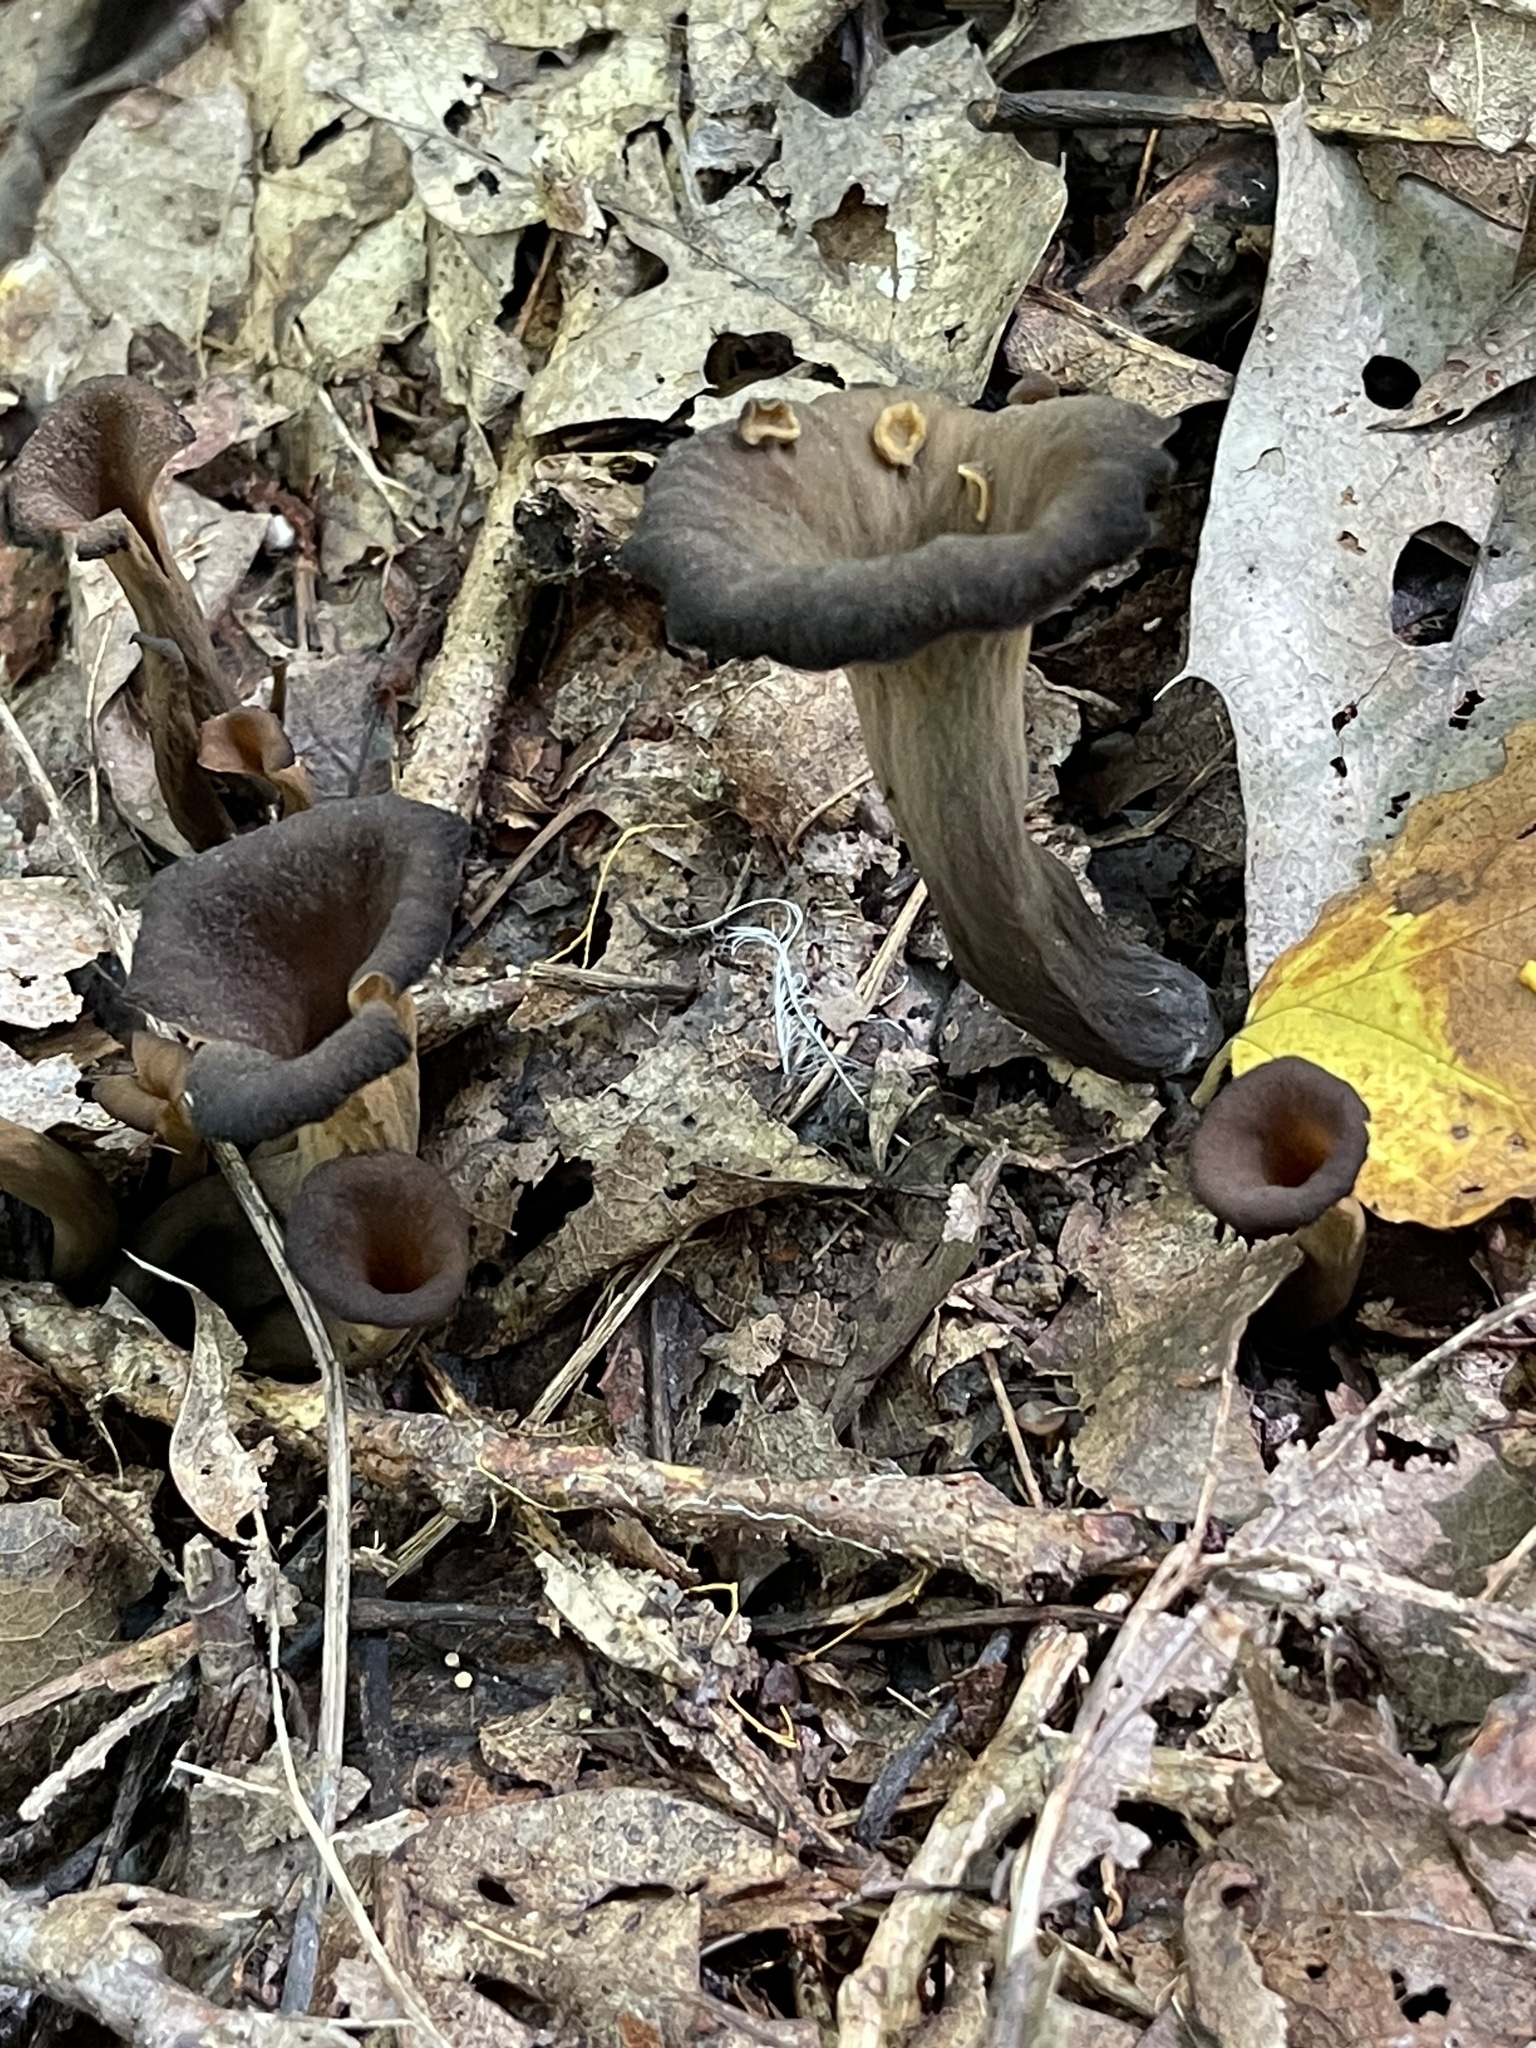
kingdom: Fungi
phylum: Basidiomycota
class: Agaricomycetes
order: Cantharellales
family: Hydnaceae
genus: Craterellus
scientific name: Craterellus cornucopioides
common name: Horn of plenty
